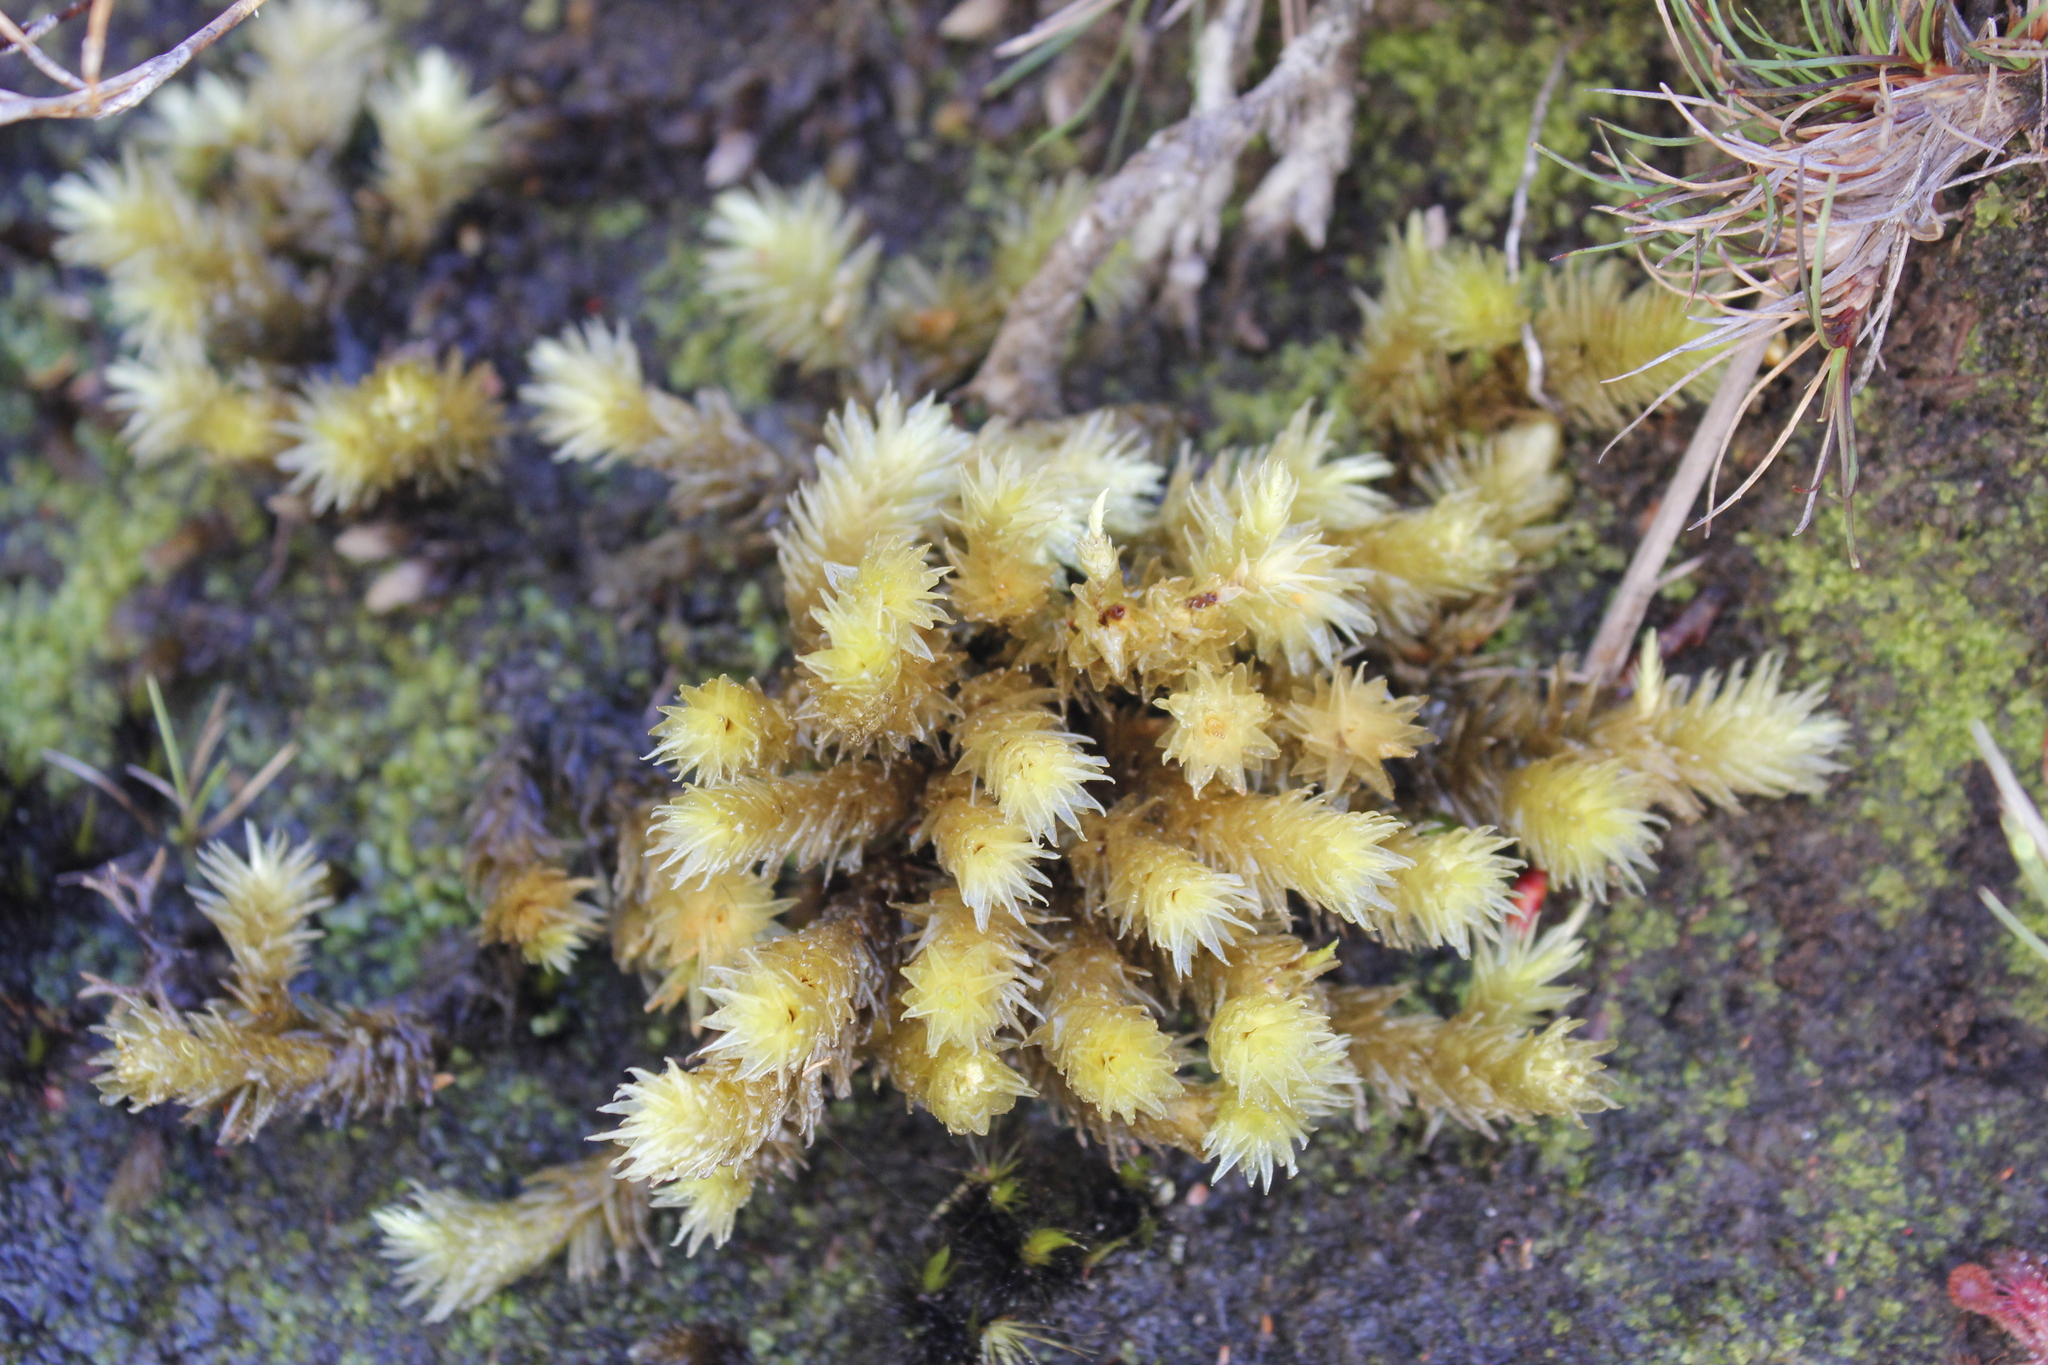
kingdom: Plantae
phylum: Bryophyta
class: Bryopsida
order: Bryales
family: Pulchrinodaceae
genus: Pulchrinodus
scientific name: Pulchrinodus inflatus
